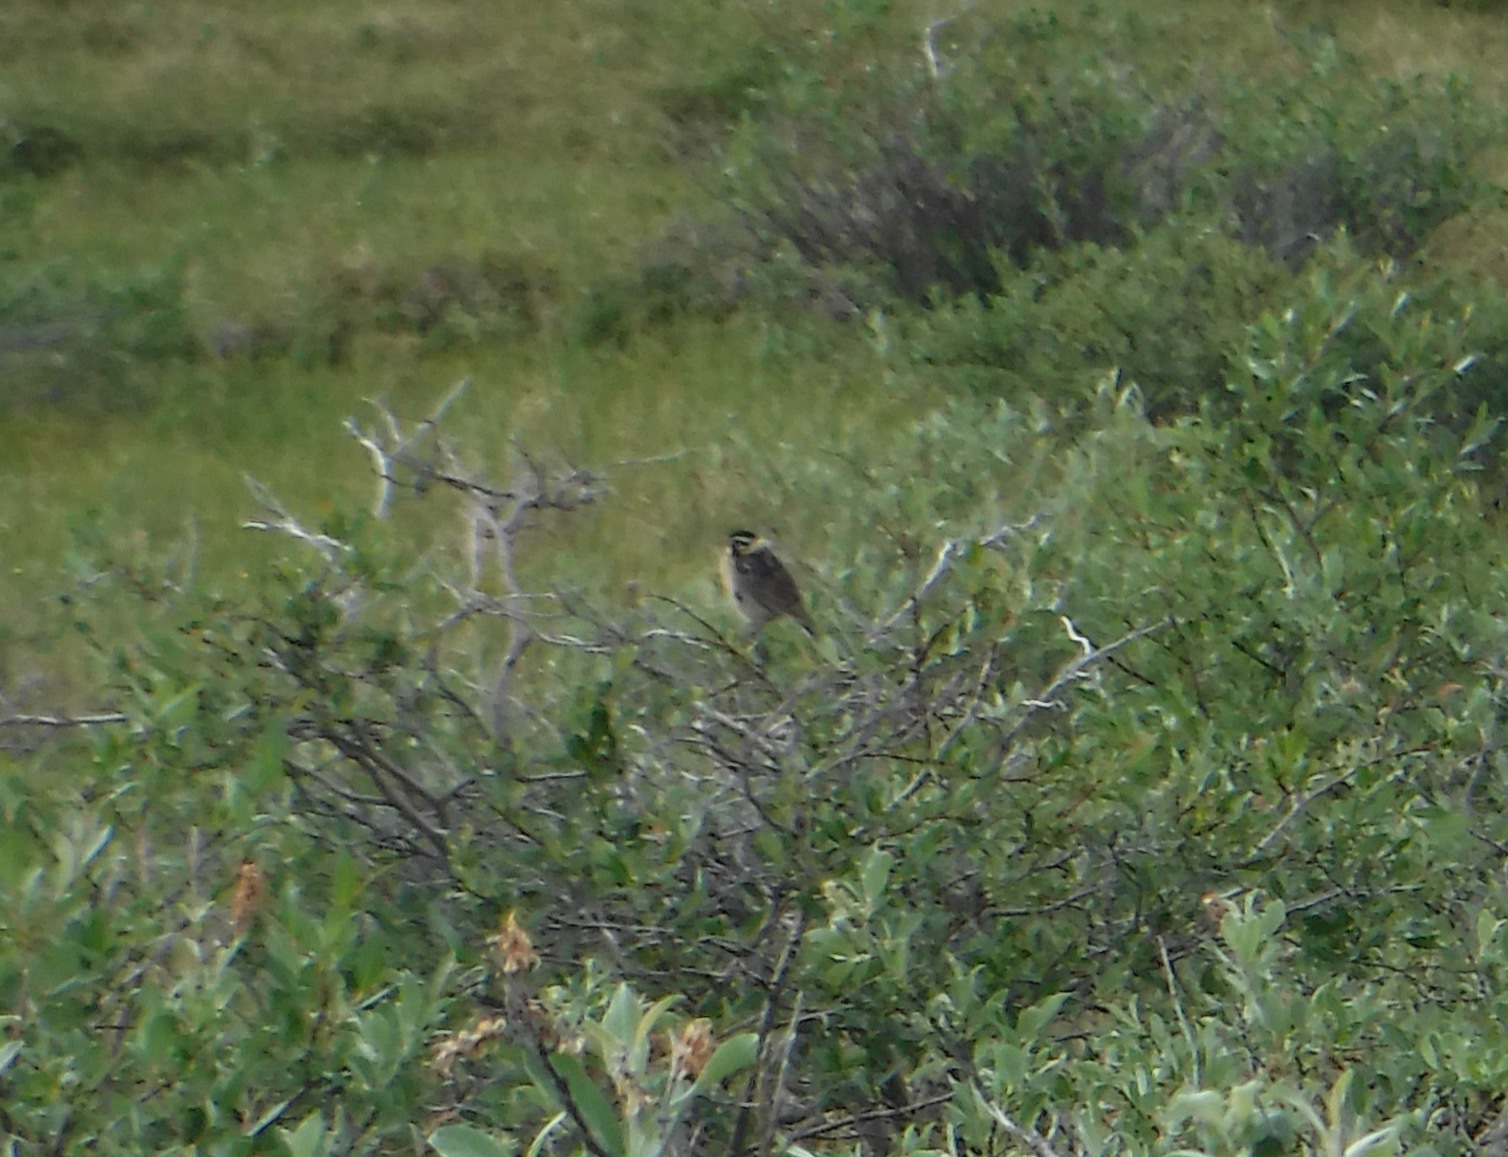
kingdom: Animalia
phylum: Chordata
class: Aves
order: Passeriformes
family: Calcariidae
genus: Calcarius
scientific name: Calcarius pictus
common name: Smith's longspur
